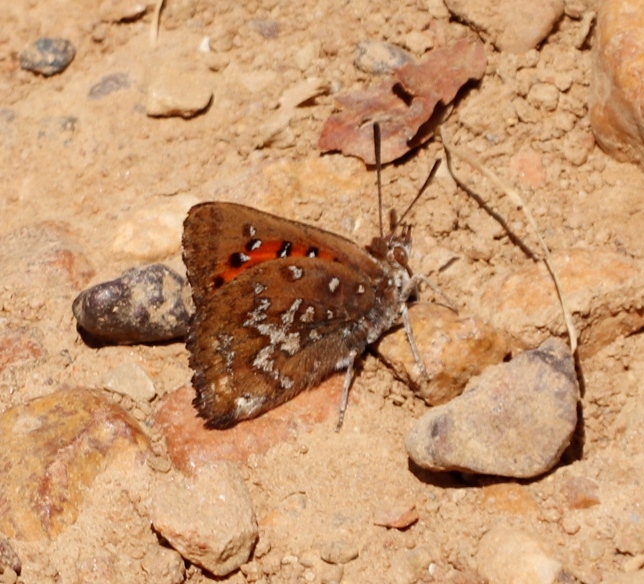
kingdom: Animalia
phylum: Arthropoda
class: Insecta
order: Lepidoptera
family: Lycaenidae
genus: Aloeides
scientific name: Aloeides thyra
